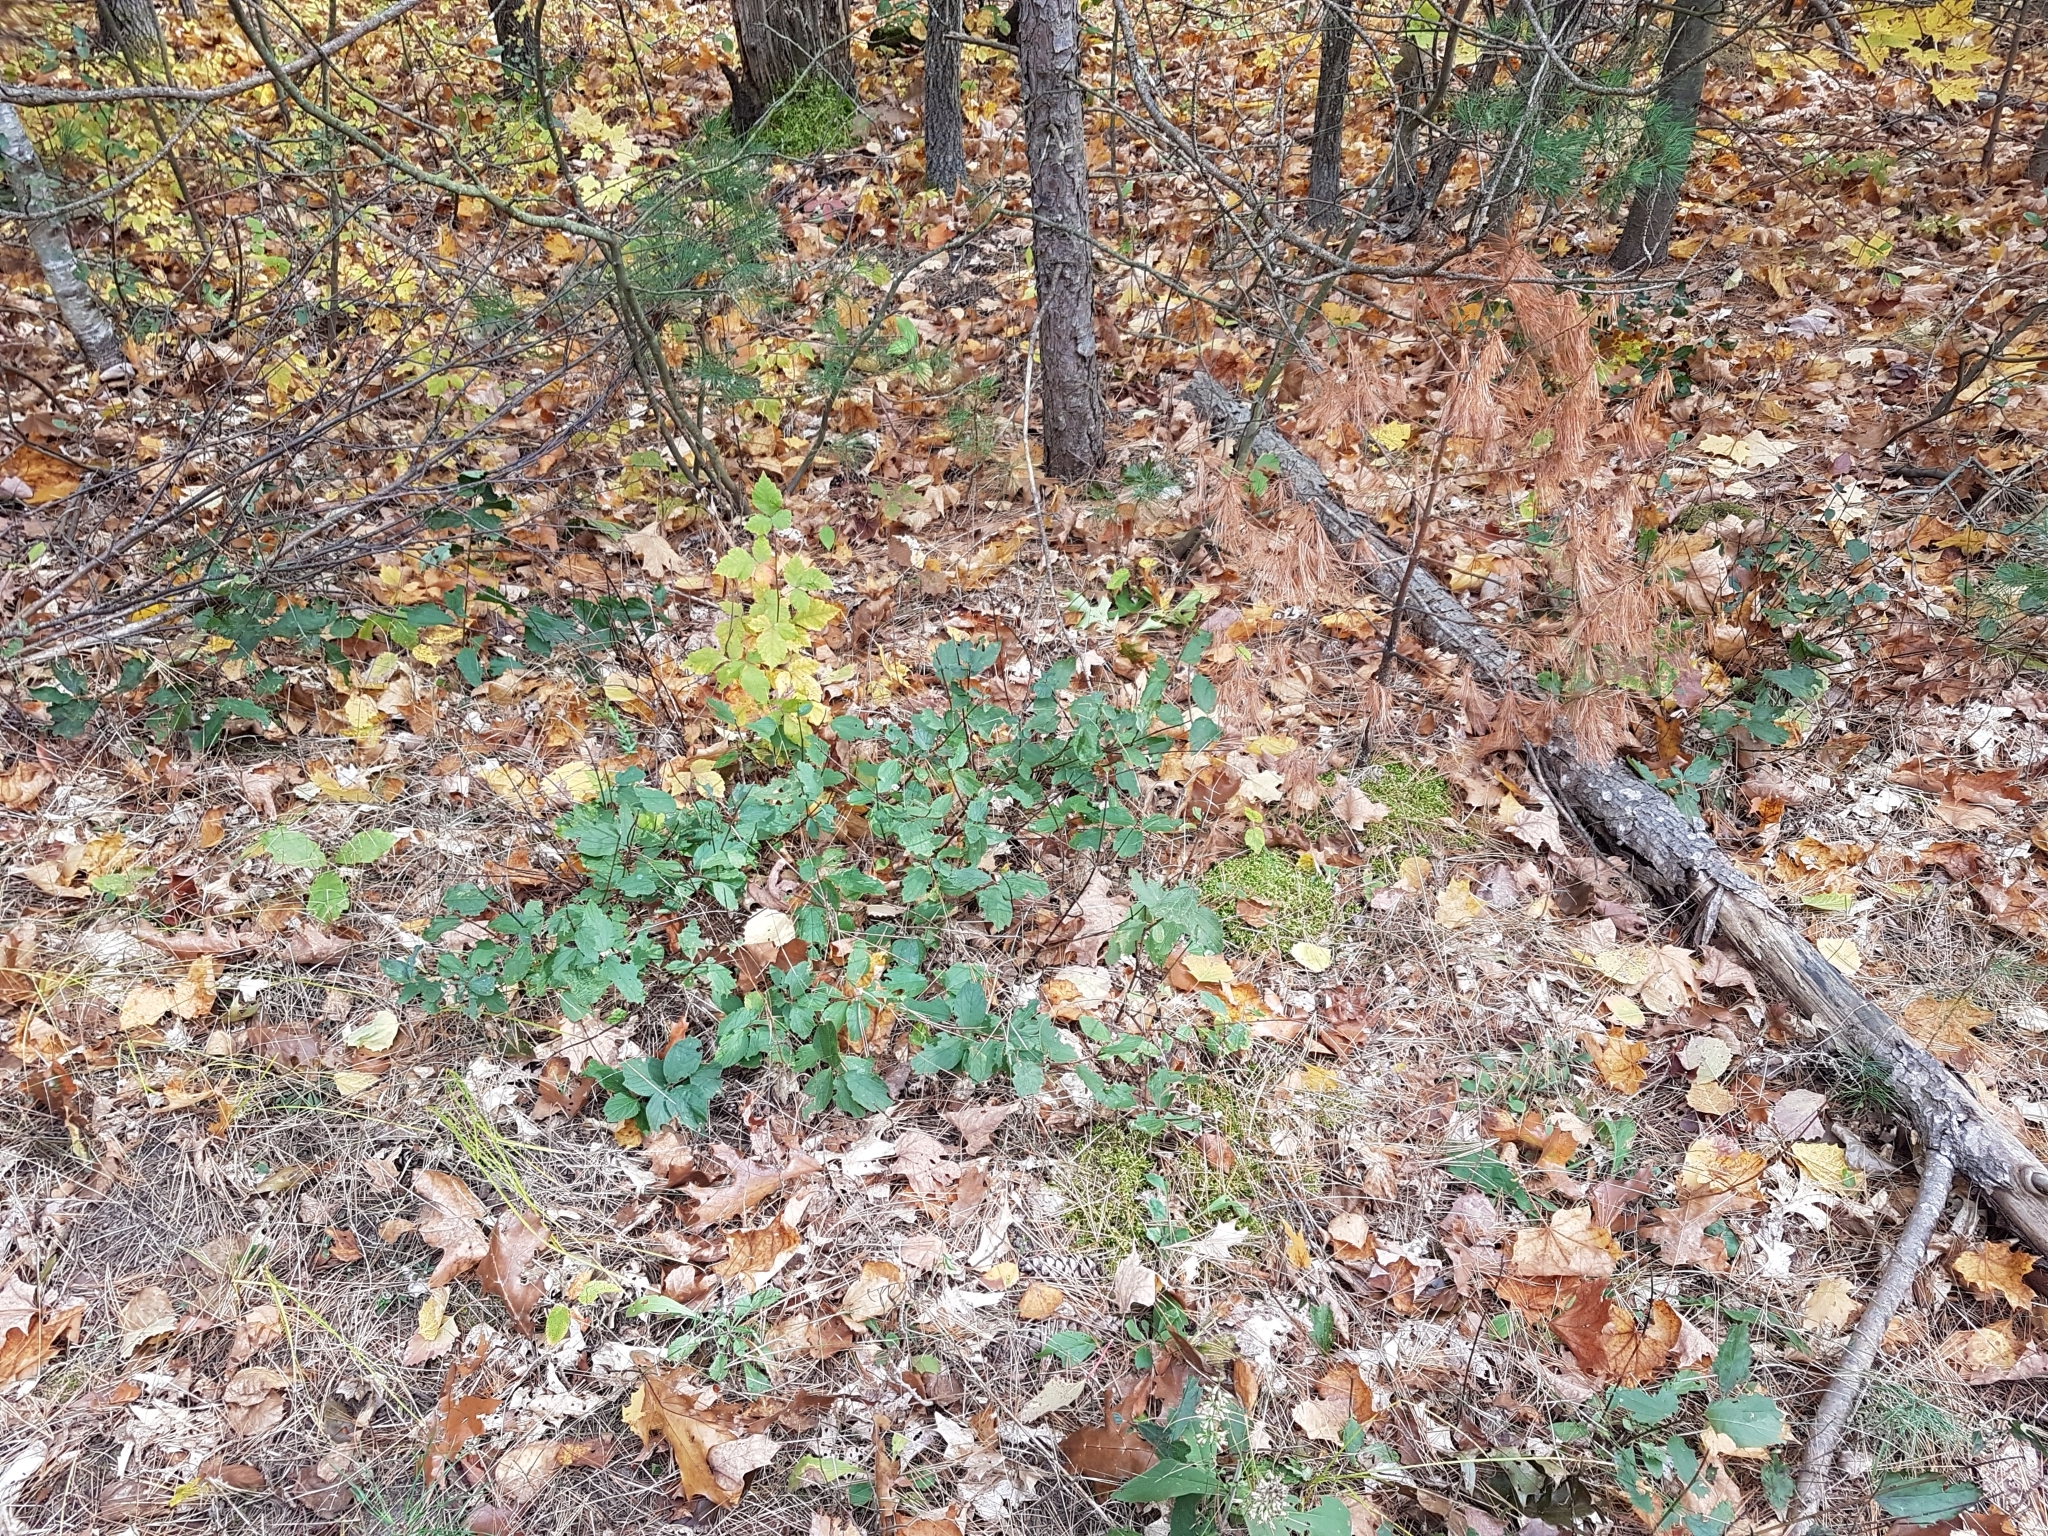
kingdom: Plantae
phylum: Tracheophyta
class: Magnoliopsida
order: Rosales
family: Rhamnaceae
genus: Ceanothus
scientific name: Ceanothus americanus
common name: Redroot
